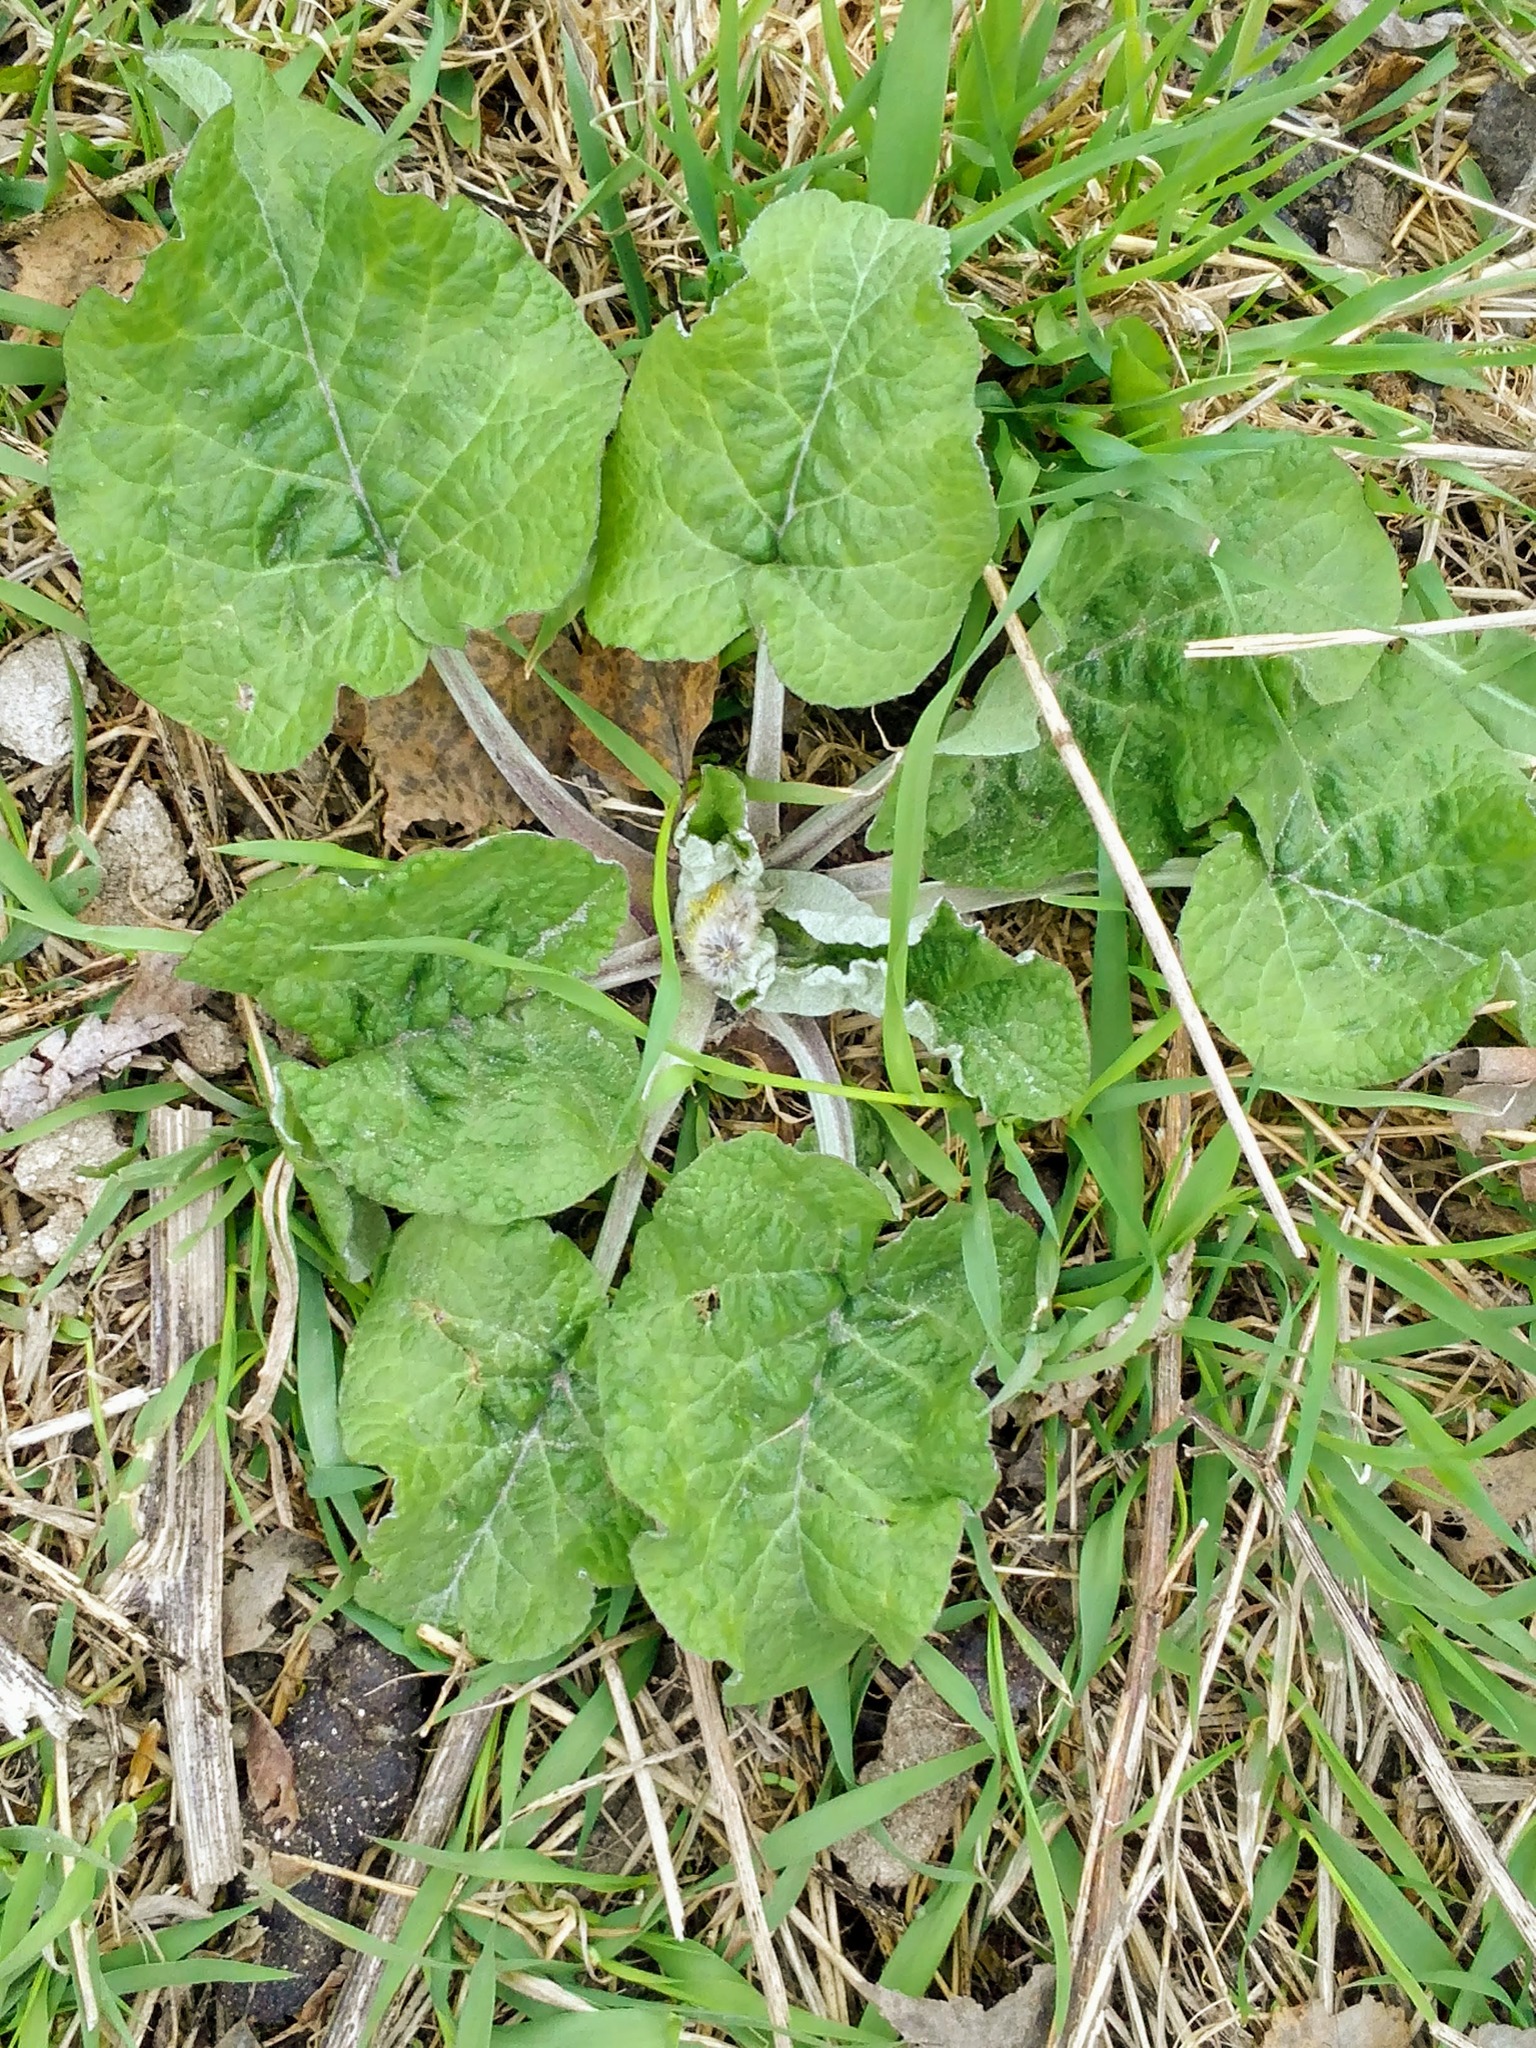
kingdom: Plantae
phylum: Tracheophyta
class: Magnoliopsida
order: Asterales
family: Asteraceae
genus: Arctium
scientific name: Arctium tomentosum
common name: Woolly burdock
